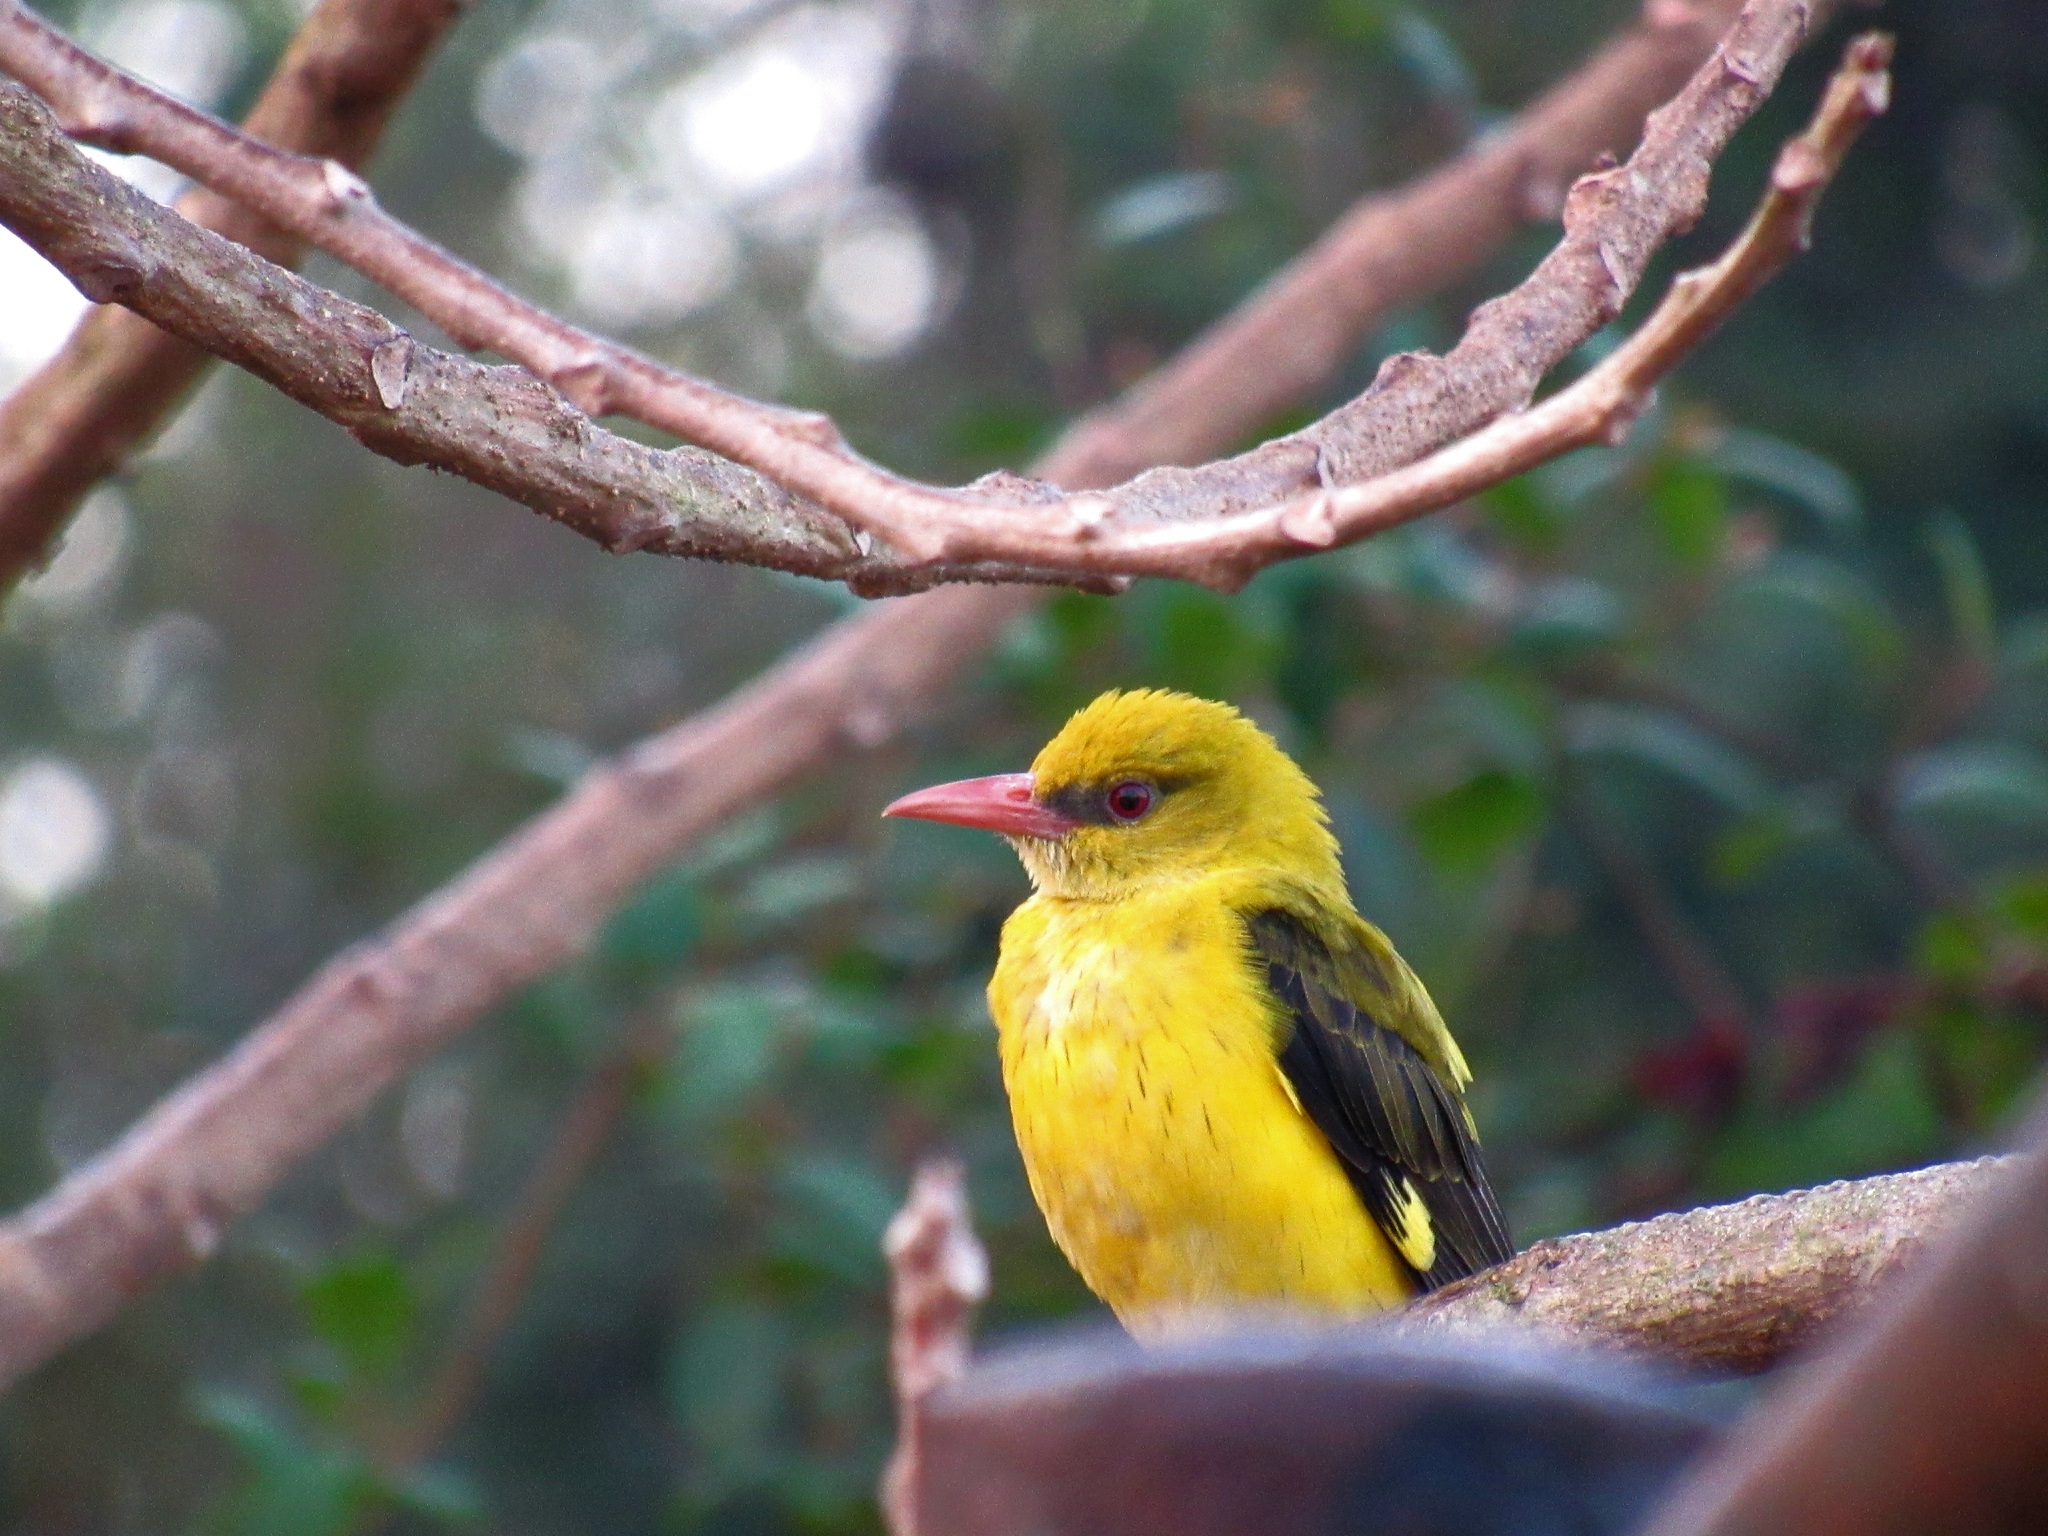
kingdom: Animalia
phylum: Chordata
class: Aves
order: Passeriformes
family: Oriolidae
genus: Oriolus
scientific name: Oriolus kundoo
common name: Indian golden oriole
